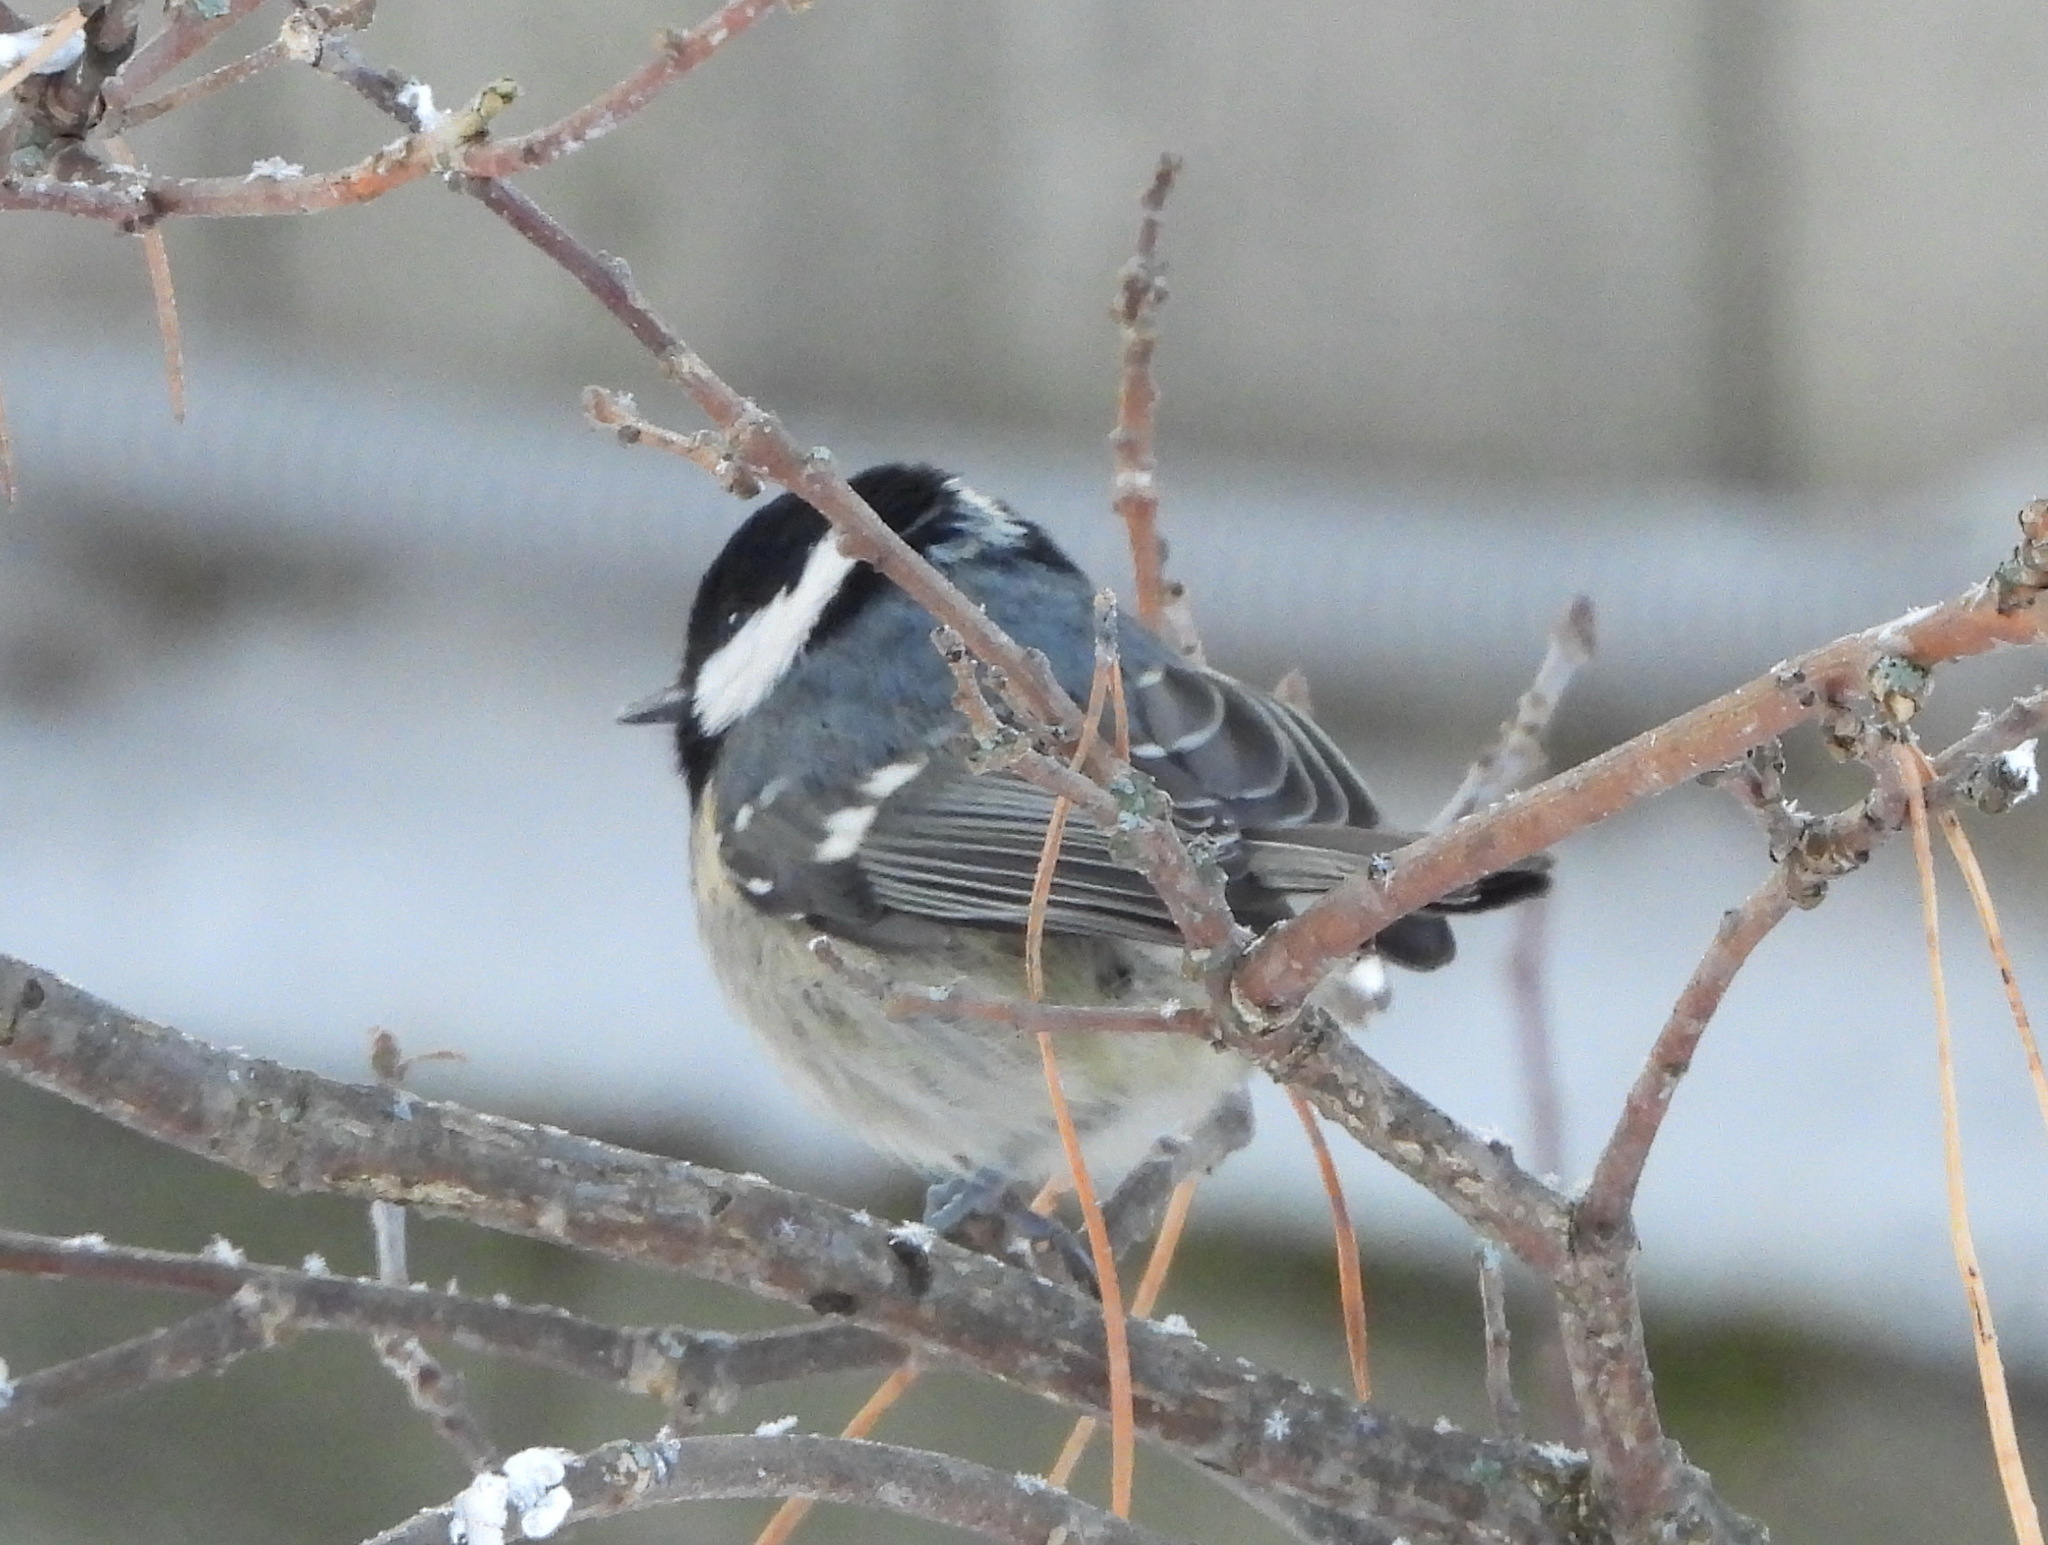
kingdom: Animalia
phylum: Chordata
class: Aves
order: Passeriformes
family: Paridae
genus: Periparus
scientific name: Periparus ater
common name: Coal tit
